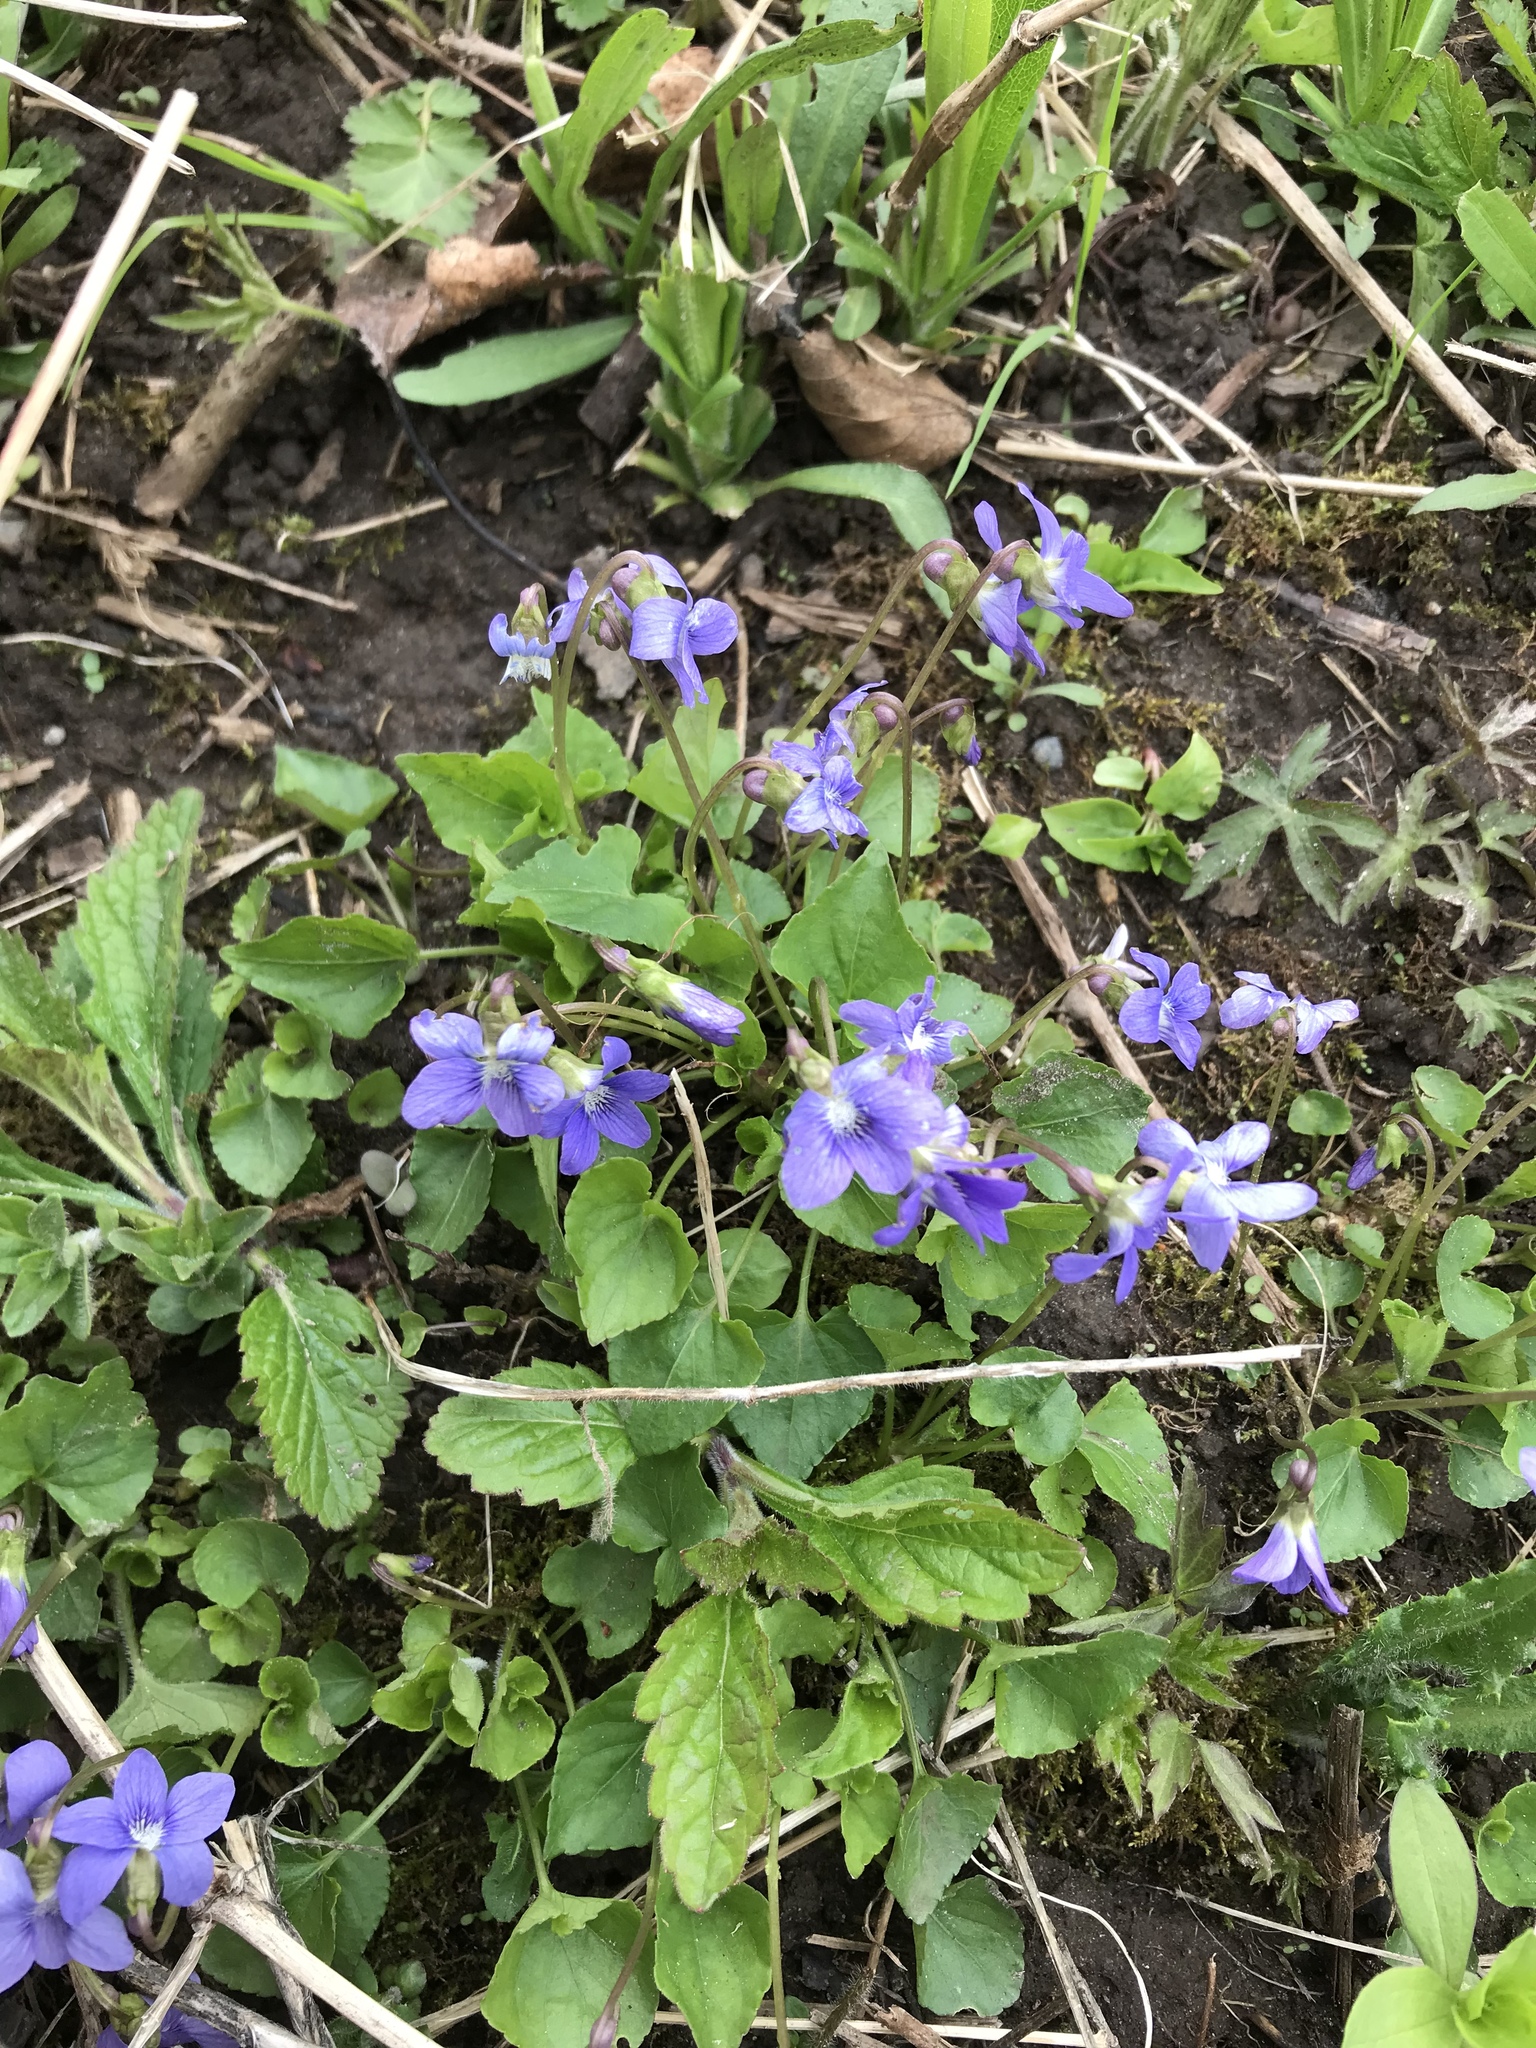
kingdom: Plantae
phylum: Tracheophyta
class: Magnoliopsida
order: Malpighiales
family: Violaceae
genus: Viola
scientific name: Viola sororia
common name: Dooryard violet
